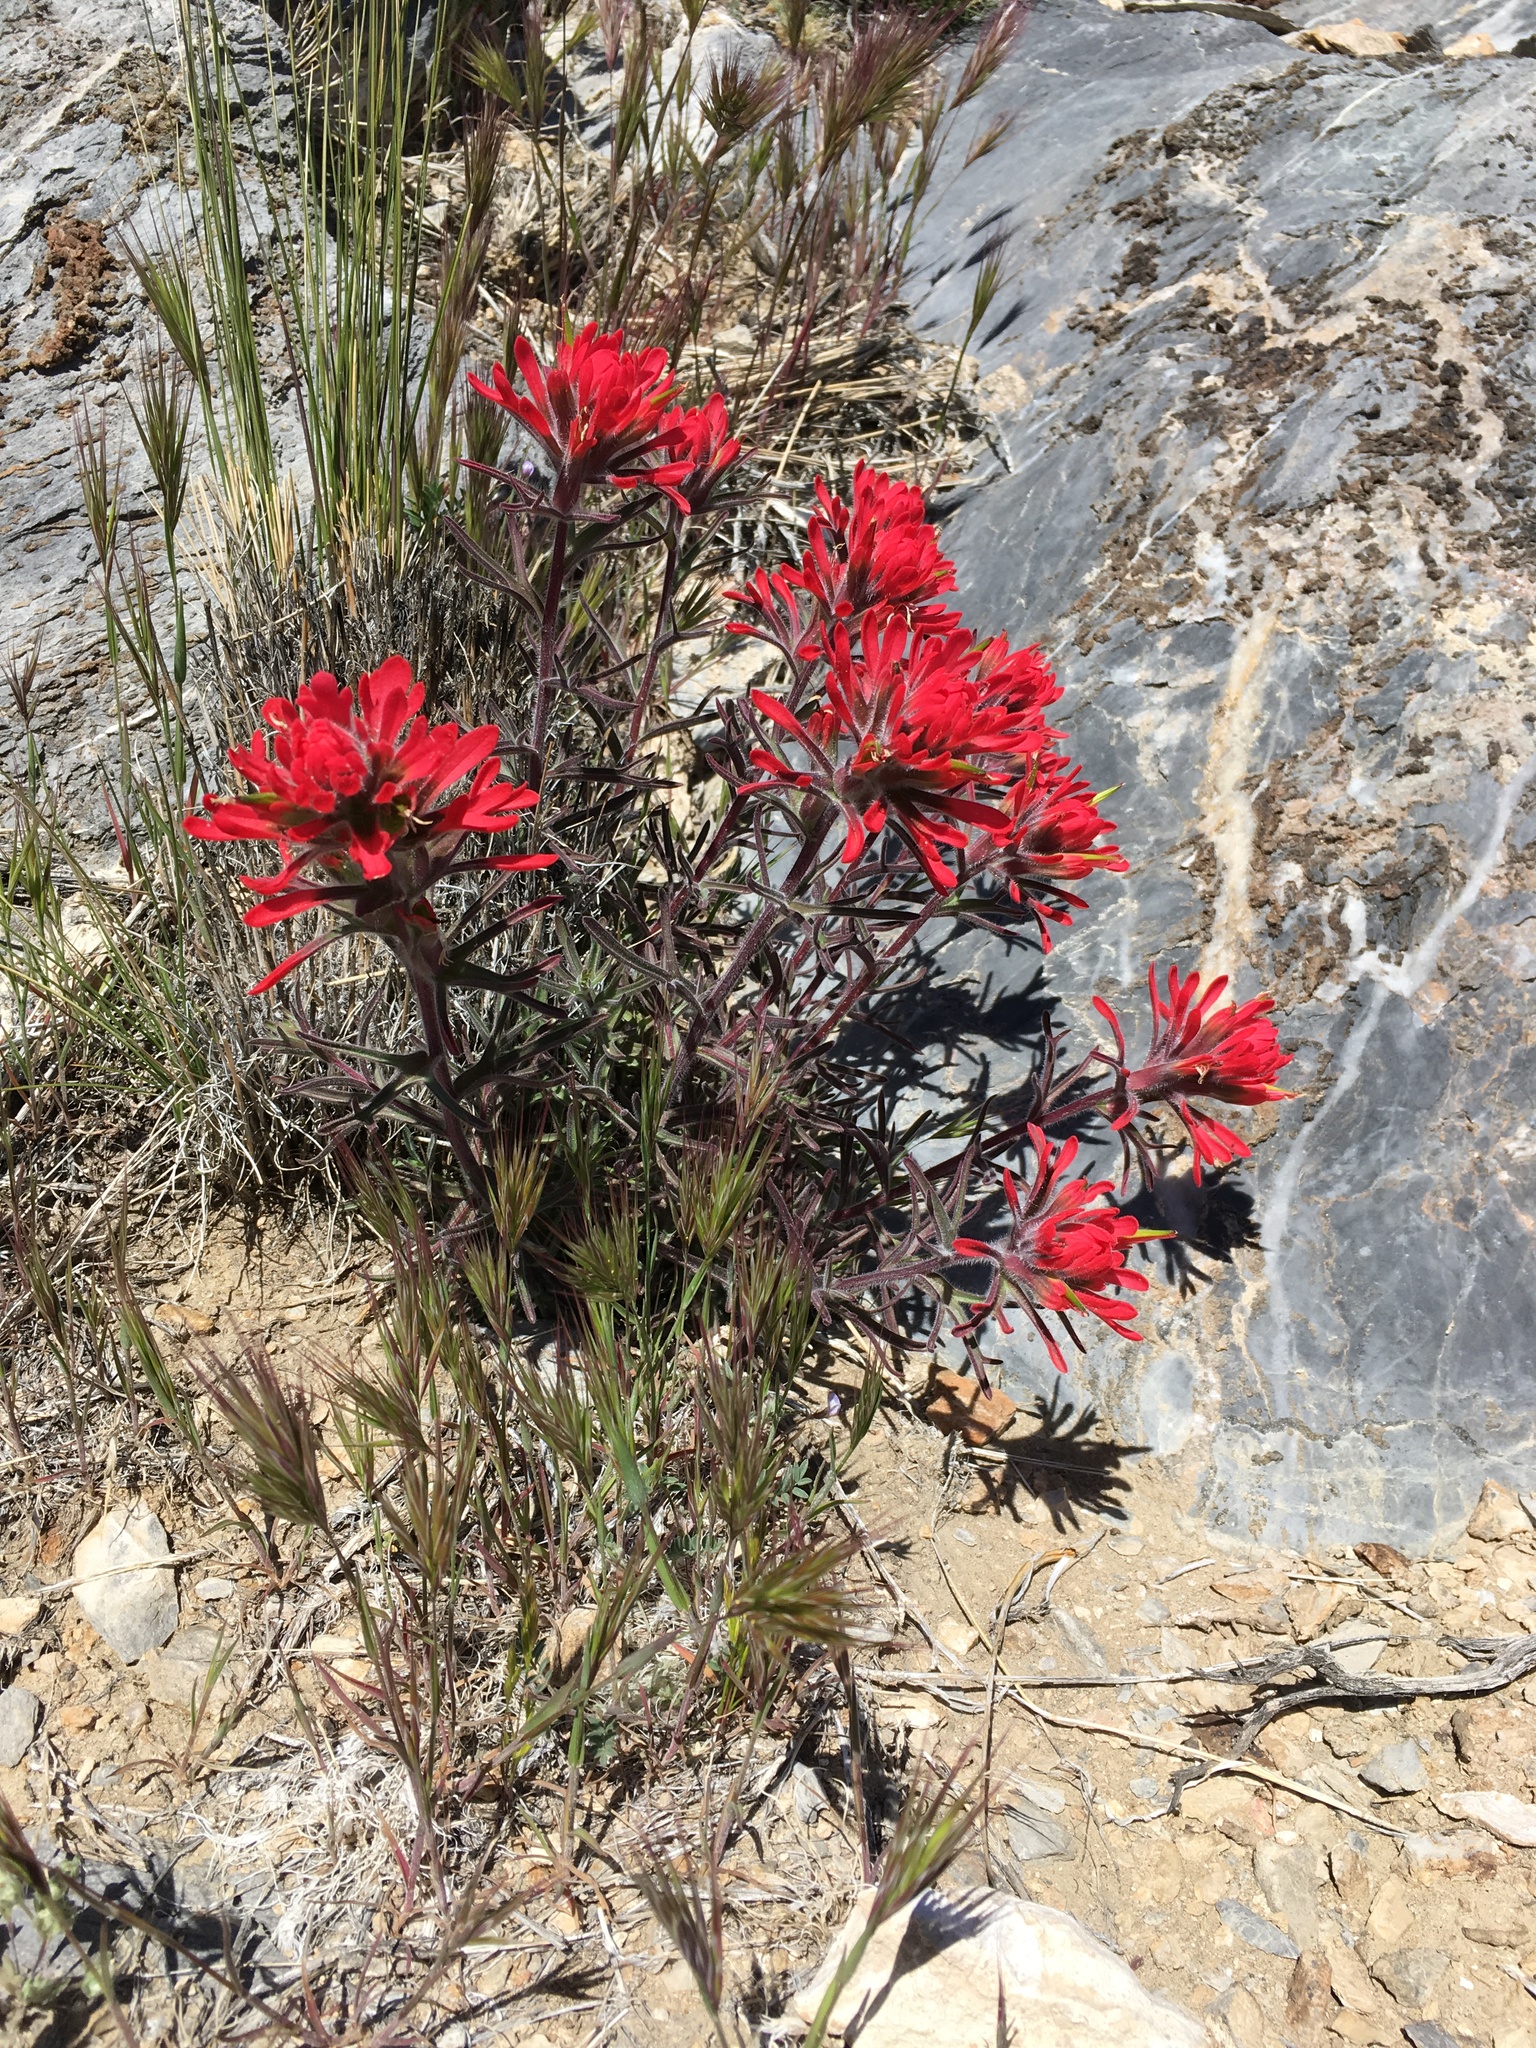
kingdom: Plantae
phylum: Tracheophyta
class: Magnoliopsida
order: Lamiales
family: Orobanchaceae
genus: Castilleja
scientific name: Castilleja chromosa
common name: Desert paintbrush
